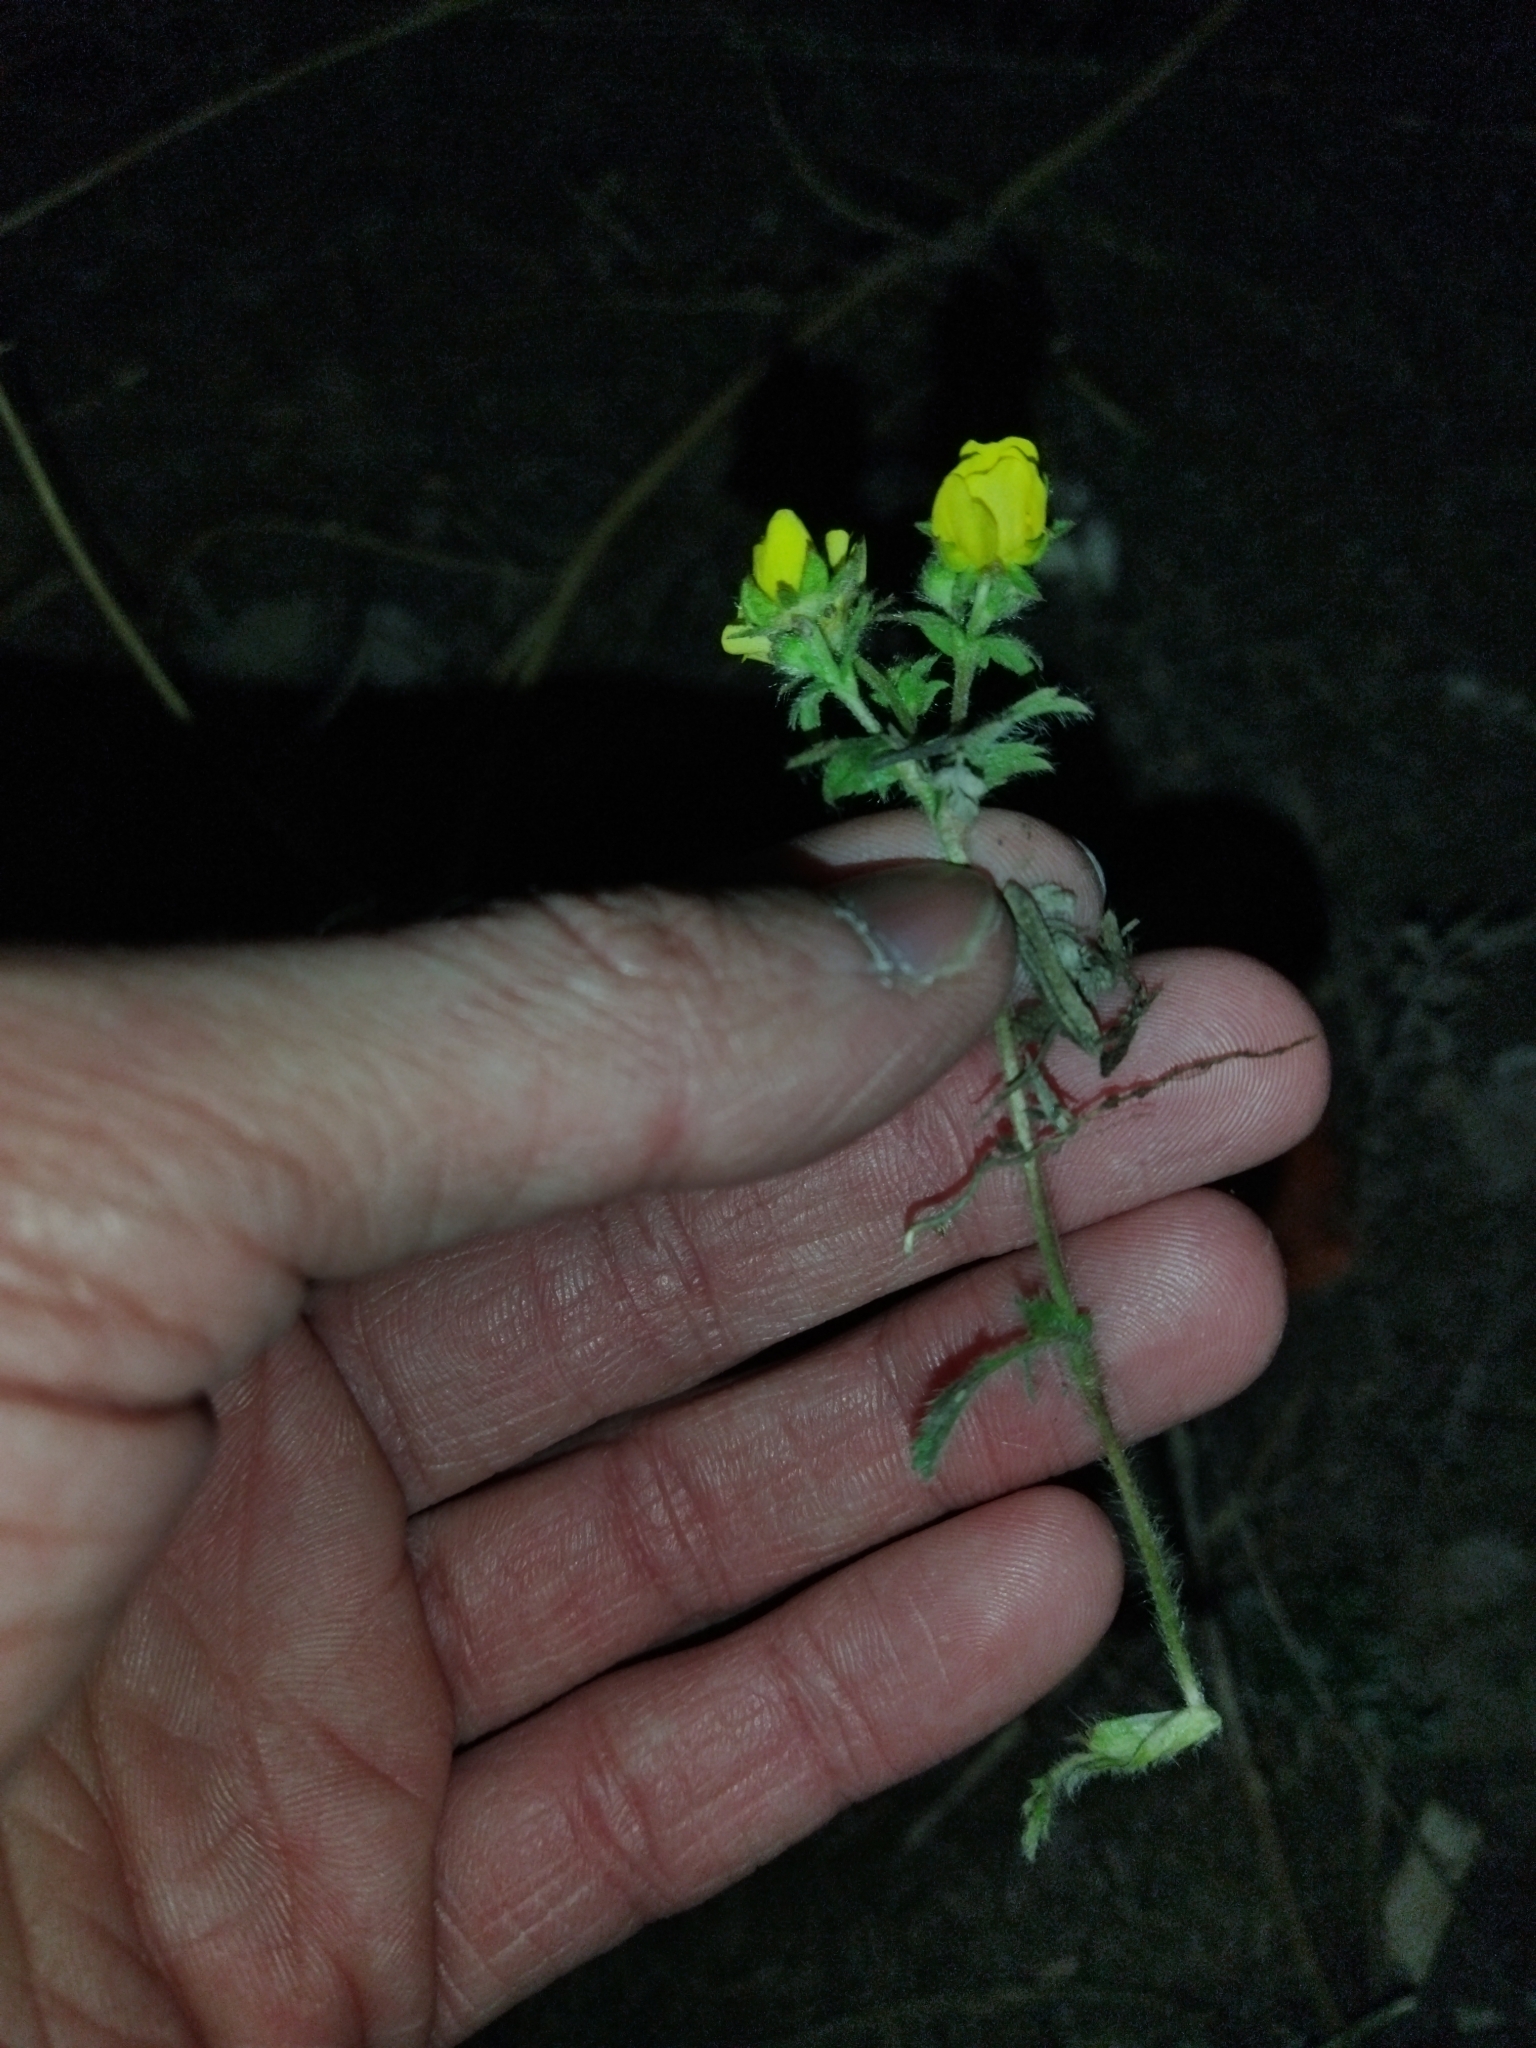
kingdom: Plantae
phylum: Tracheophyta
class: Magnoliopsida
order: Rosales
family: Rosaceae
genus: Potentilla
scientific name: Potentilla humifusa
